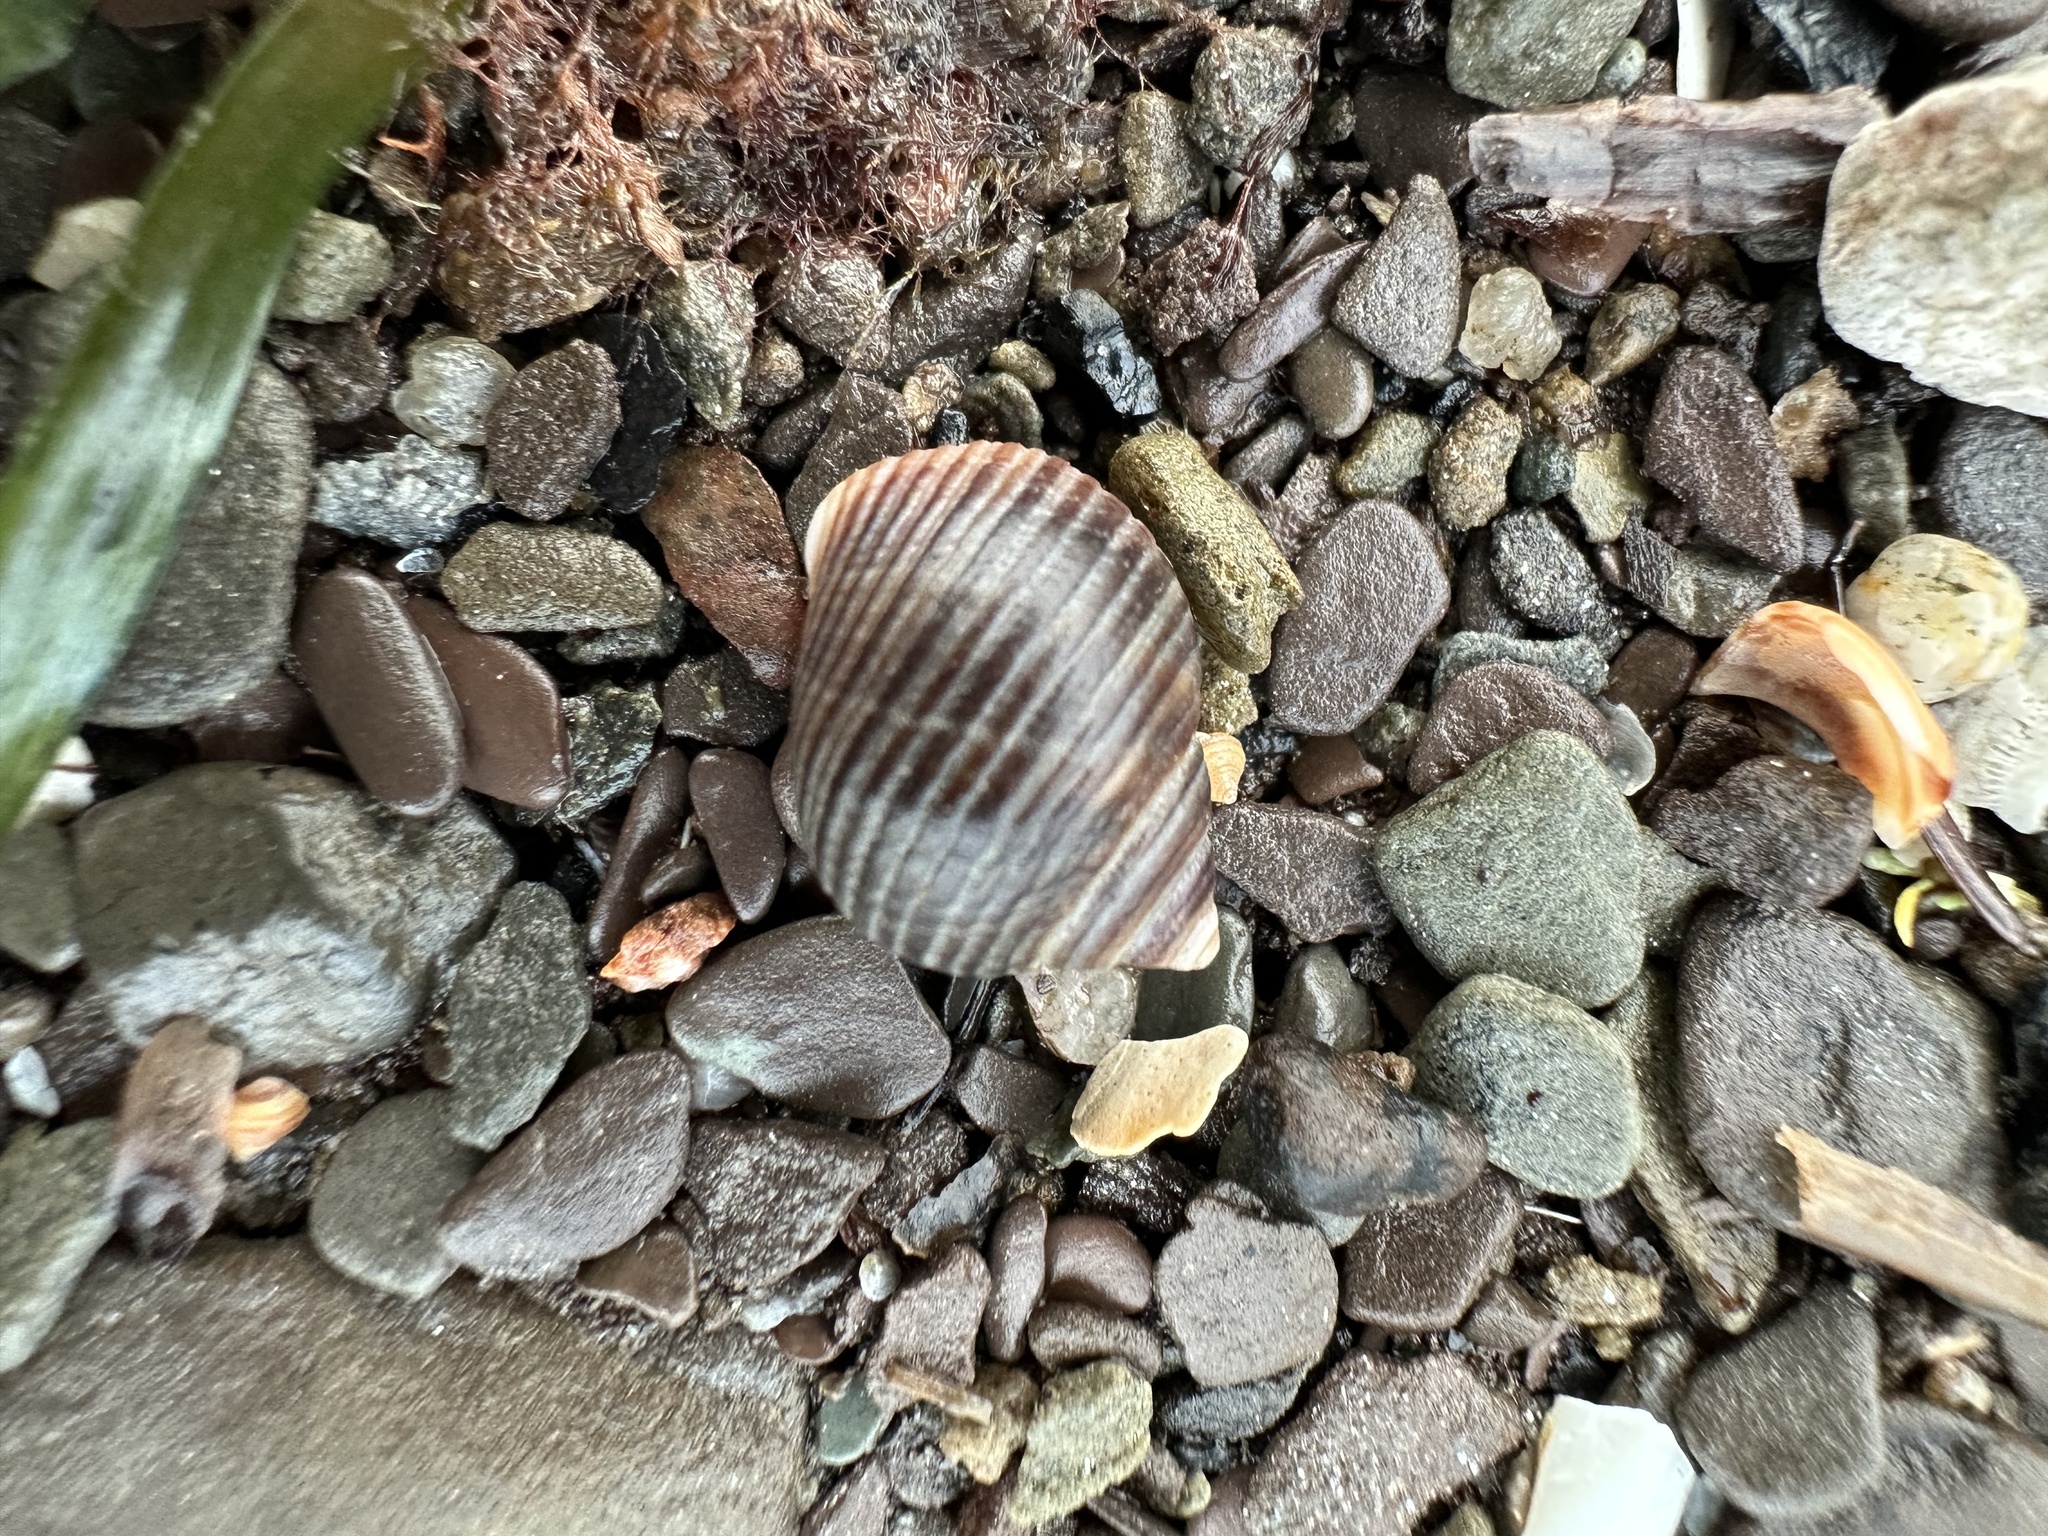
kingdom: Animalia
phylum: Mollusca
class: Gastropoda
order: Littorinimorpha
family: Littorinidae
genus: Littorina
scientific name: Littorina littorea
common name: Common periwinkle
